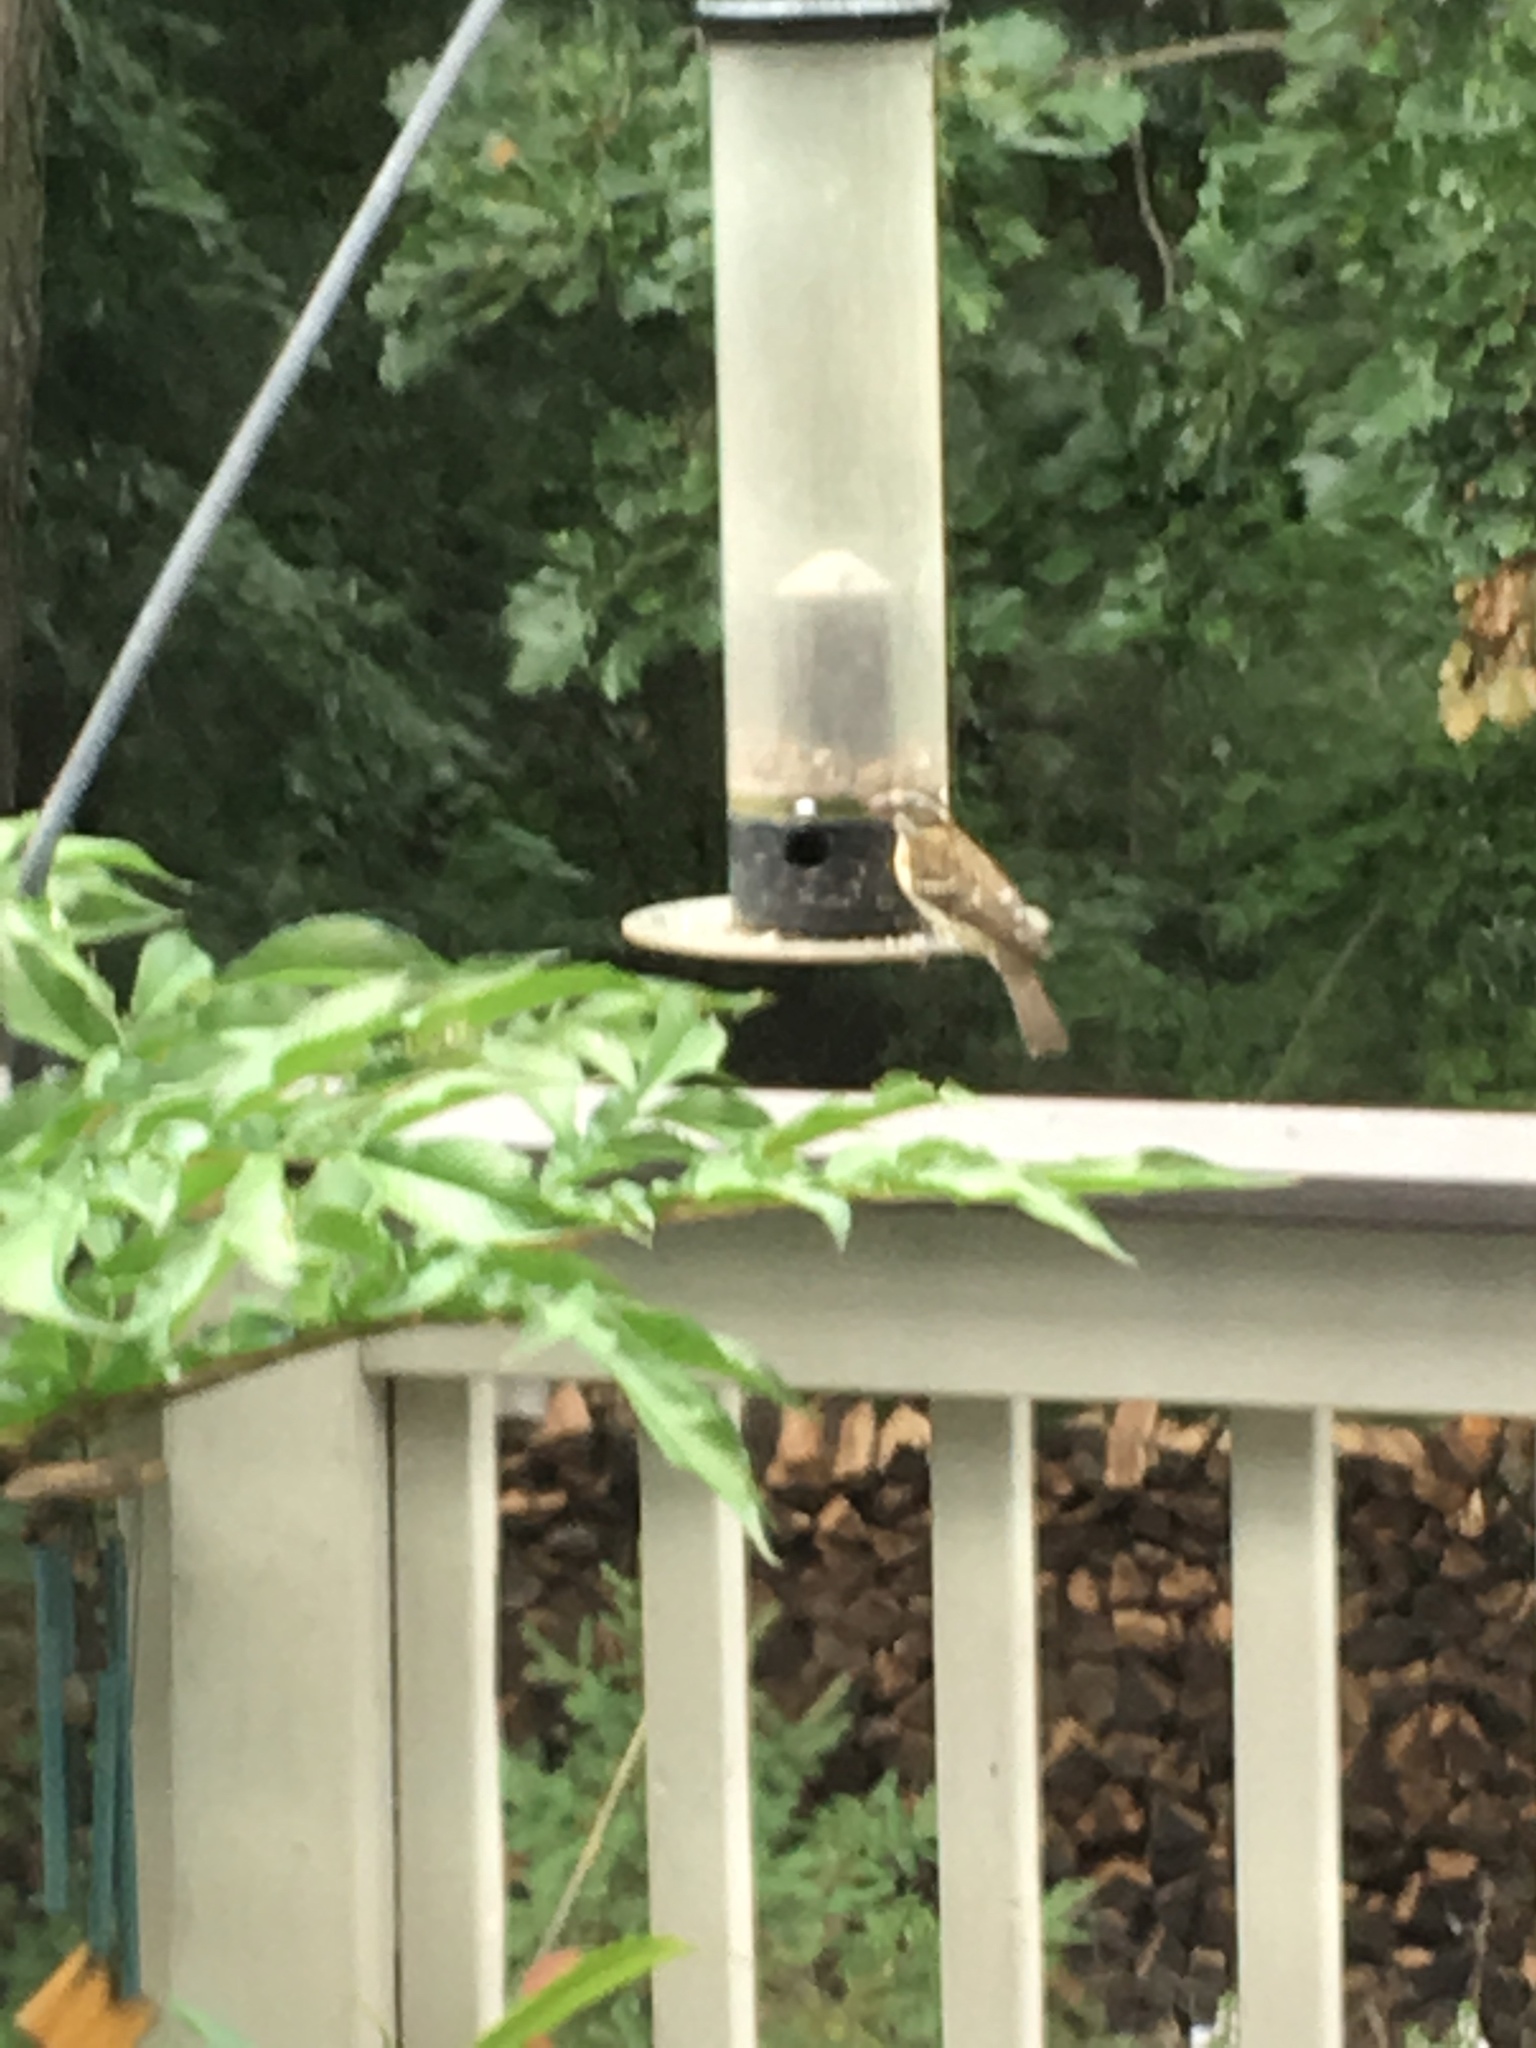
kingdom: Animalia
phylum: Chordata
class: Aves
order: Passeriformes
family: Cardinalidae
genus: Pheucticus
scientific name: Pheucticus ludovicianus
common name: Rose-breasted grosbeak
